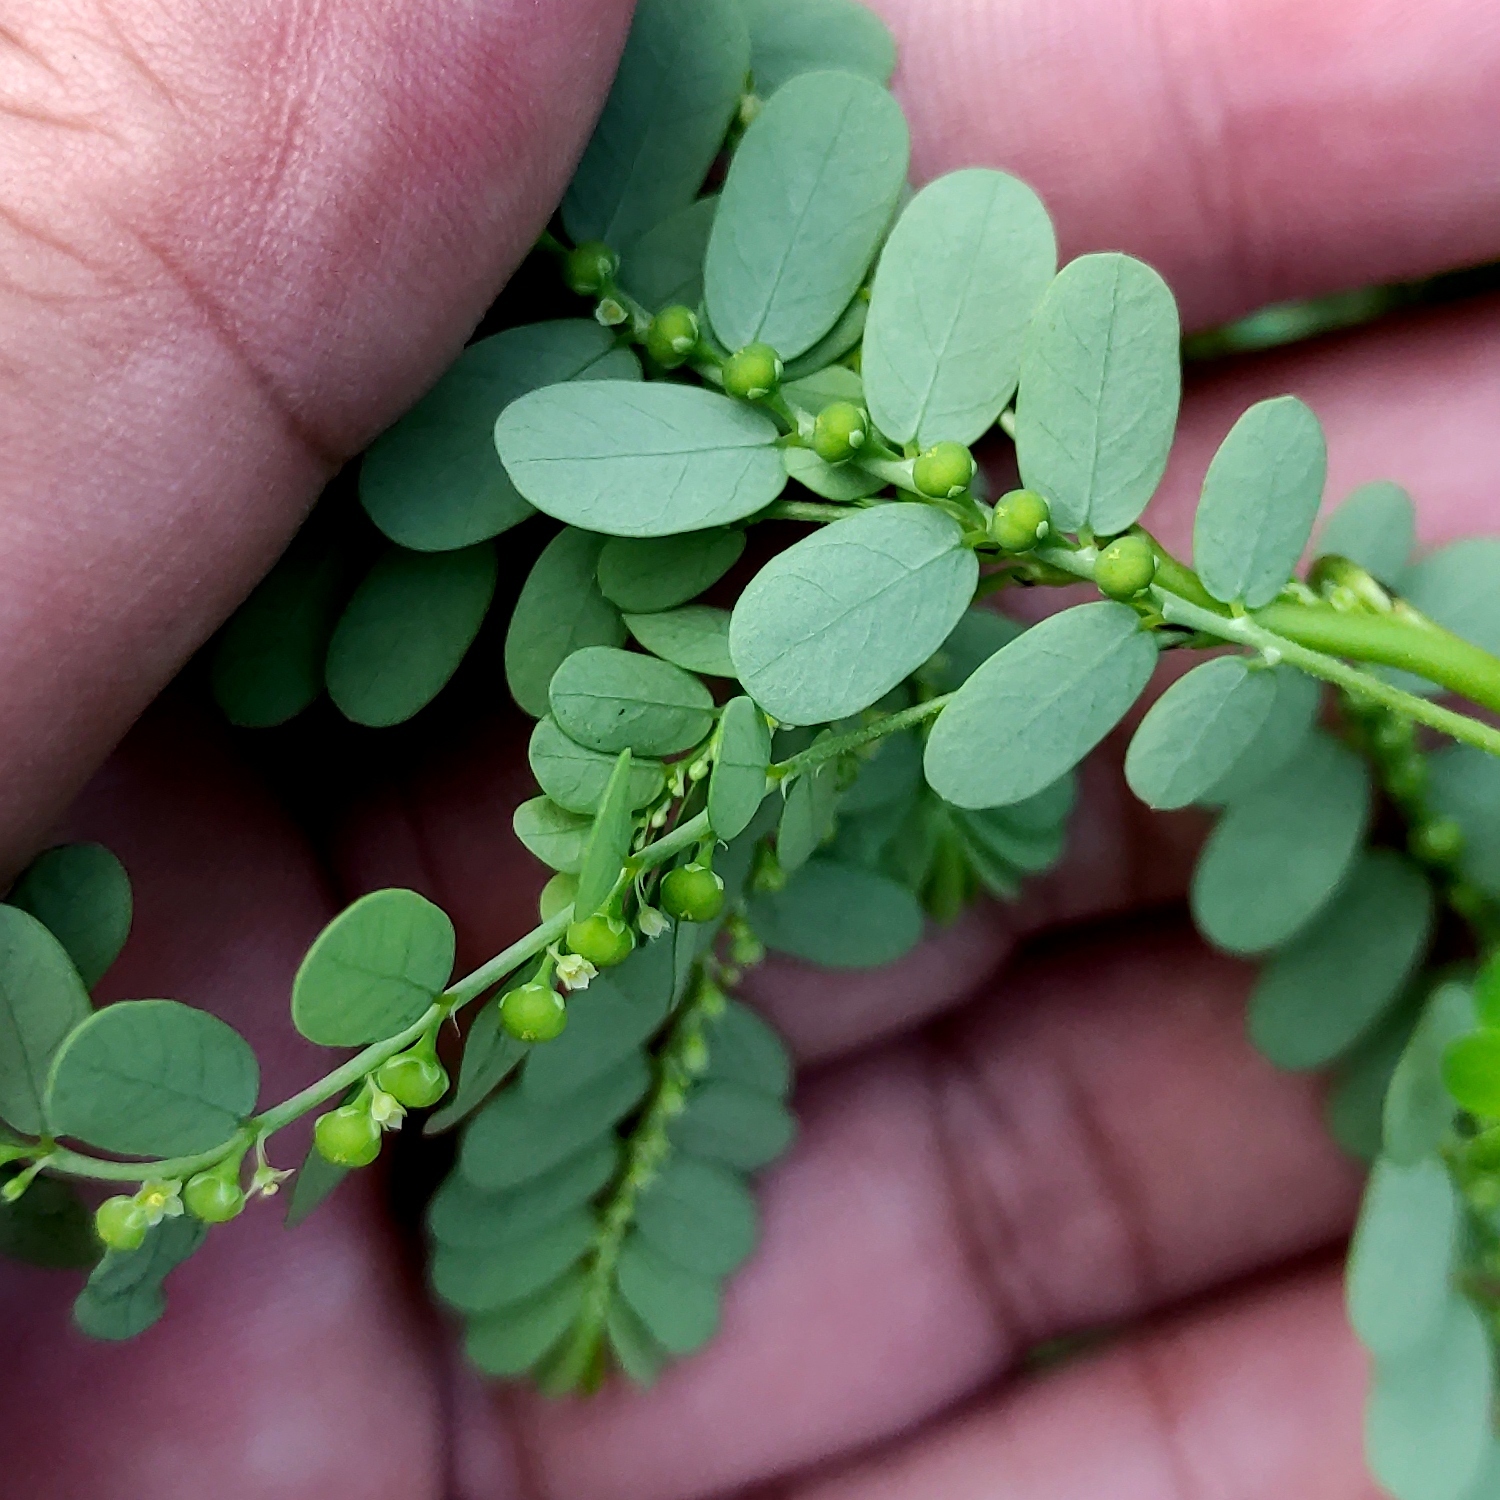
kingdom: Plantae
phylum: Tracheophyta
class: Magnoliopsida
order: Malpighiales
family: Phyllanthaceae
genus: Phyllanthus
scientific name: Phyllanthus amarus
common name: Carry me seed
